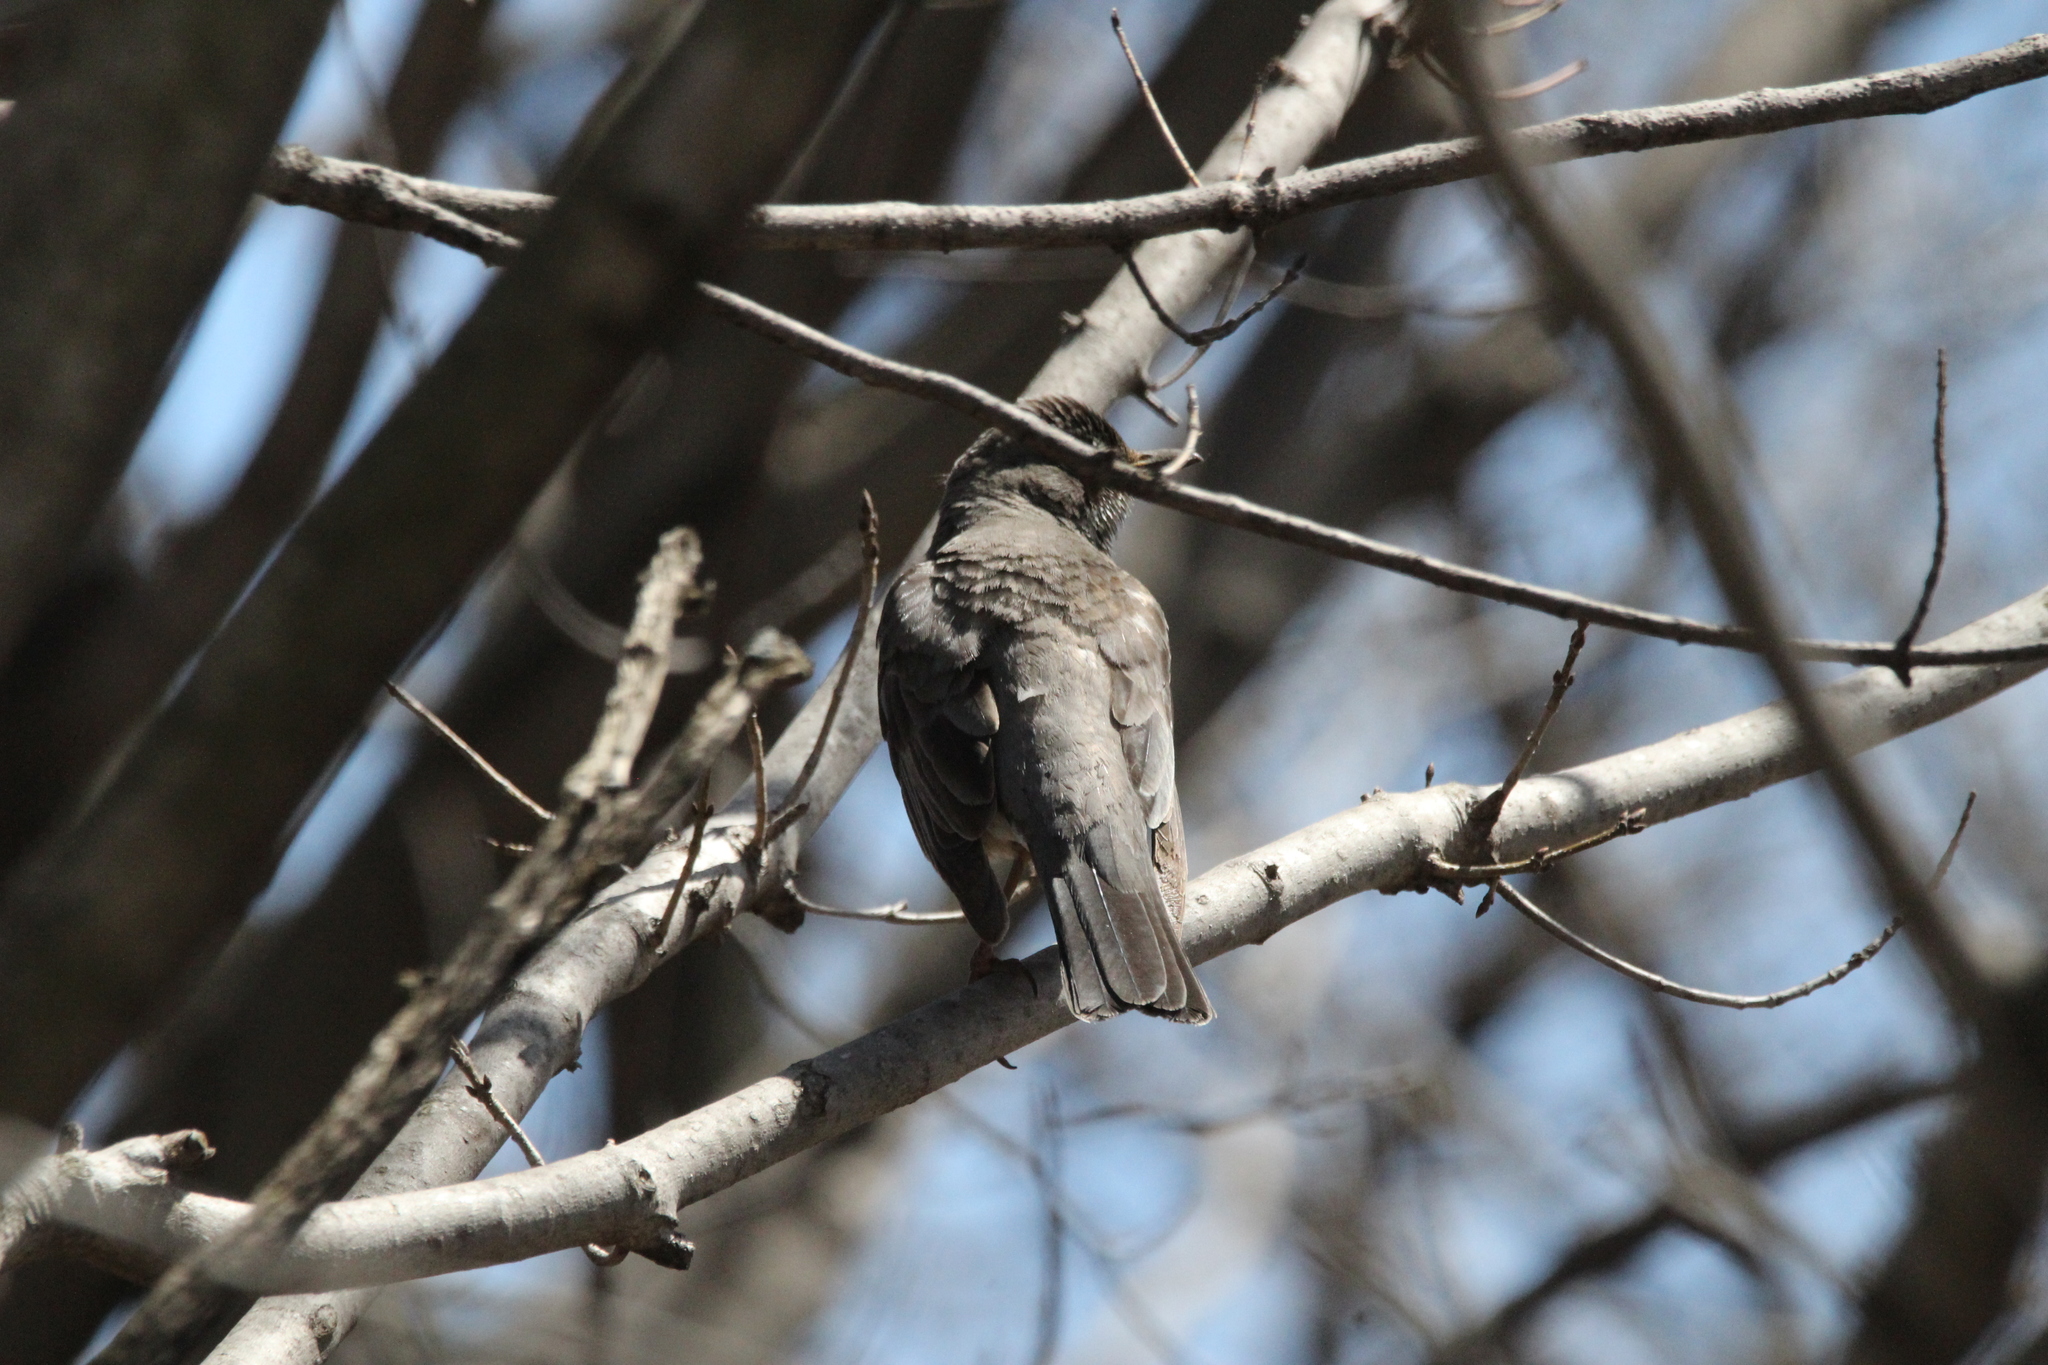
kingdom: Animalia
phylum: Chordata
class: Aves
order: Passeriformes
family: Turdidae
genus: Turdus
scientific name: Turdus migratorius
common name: American robin
